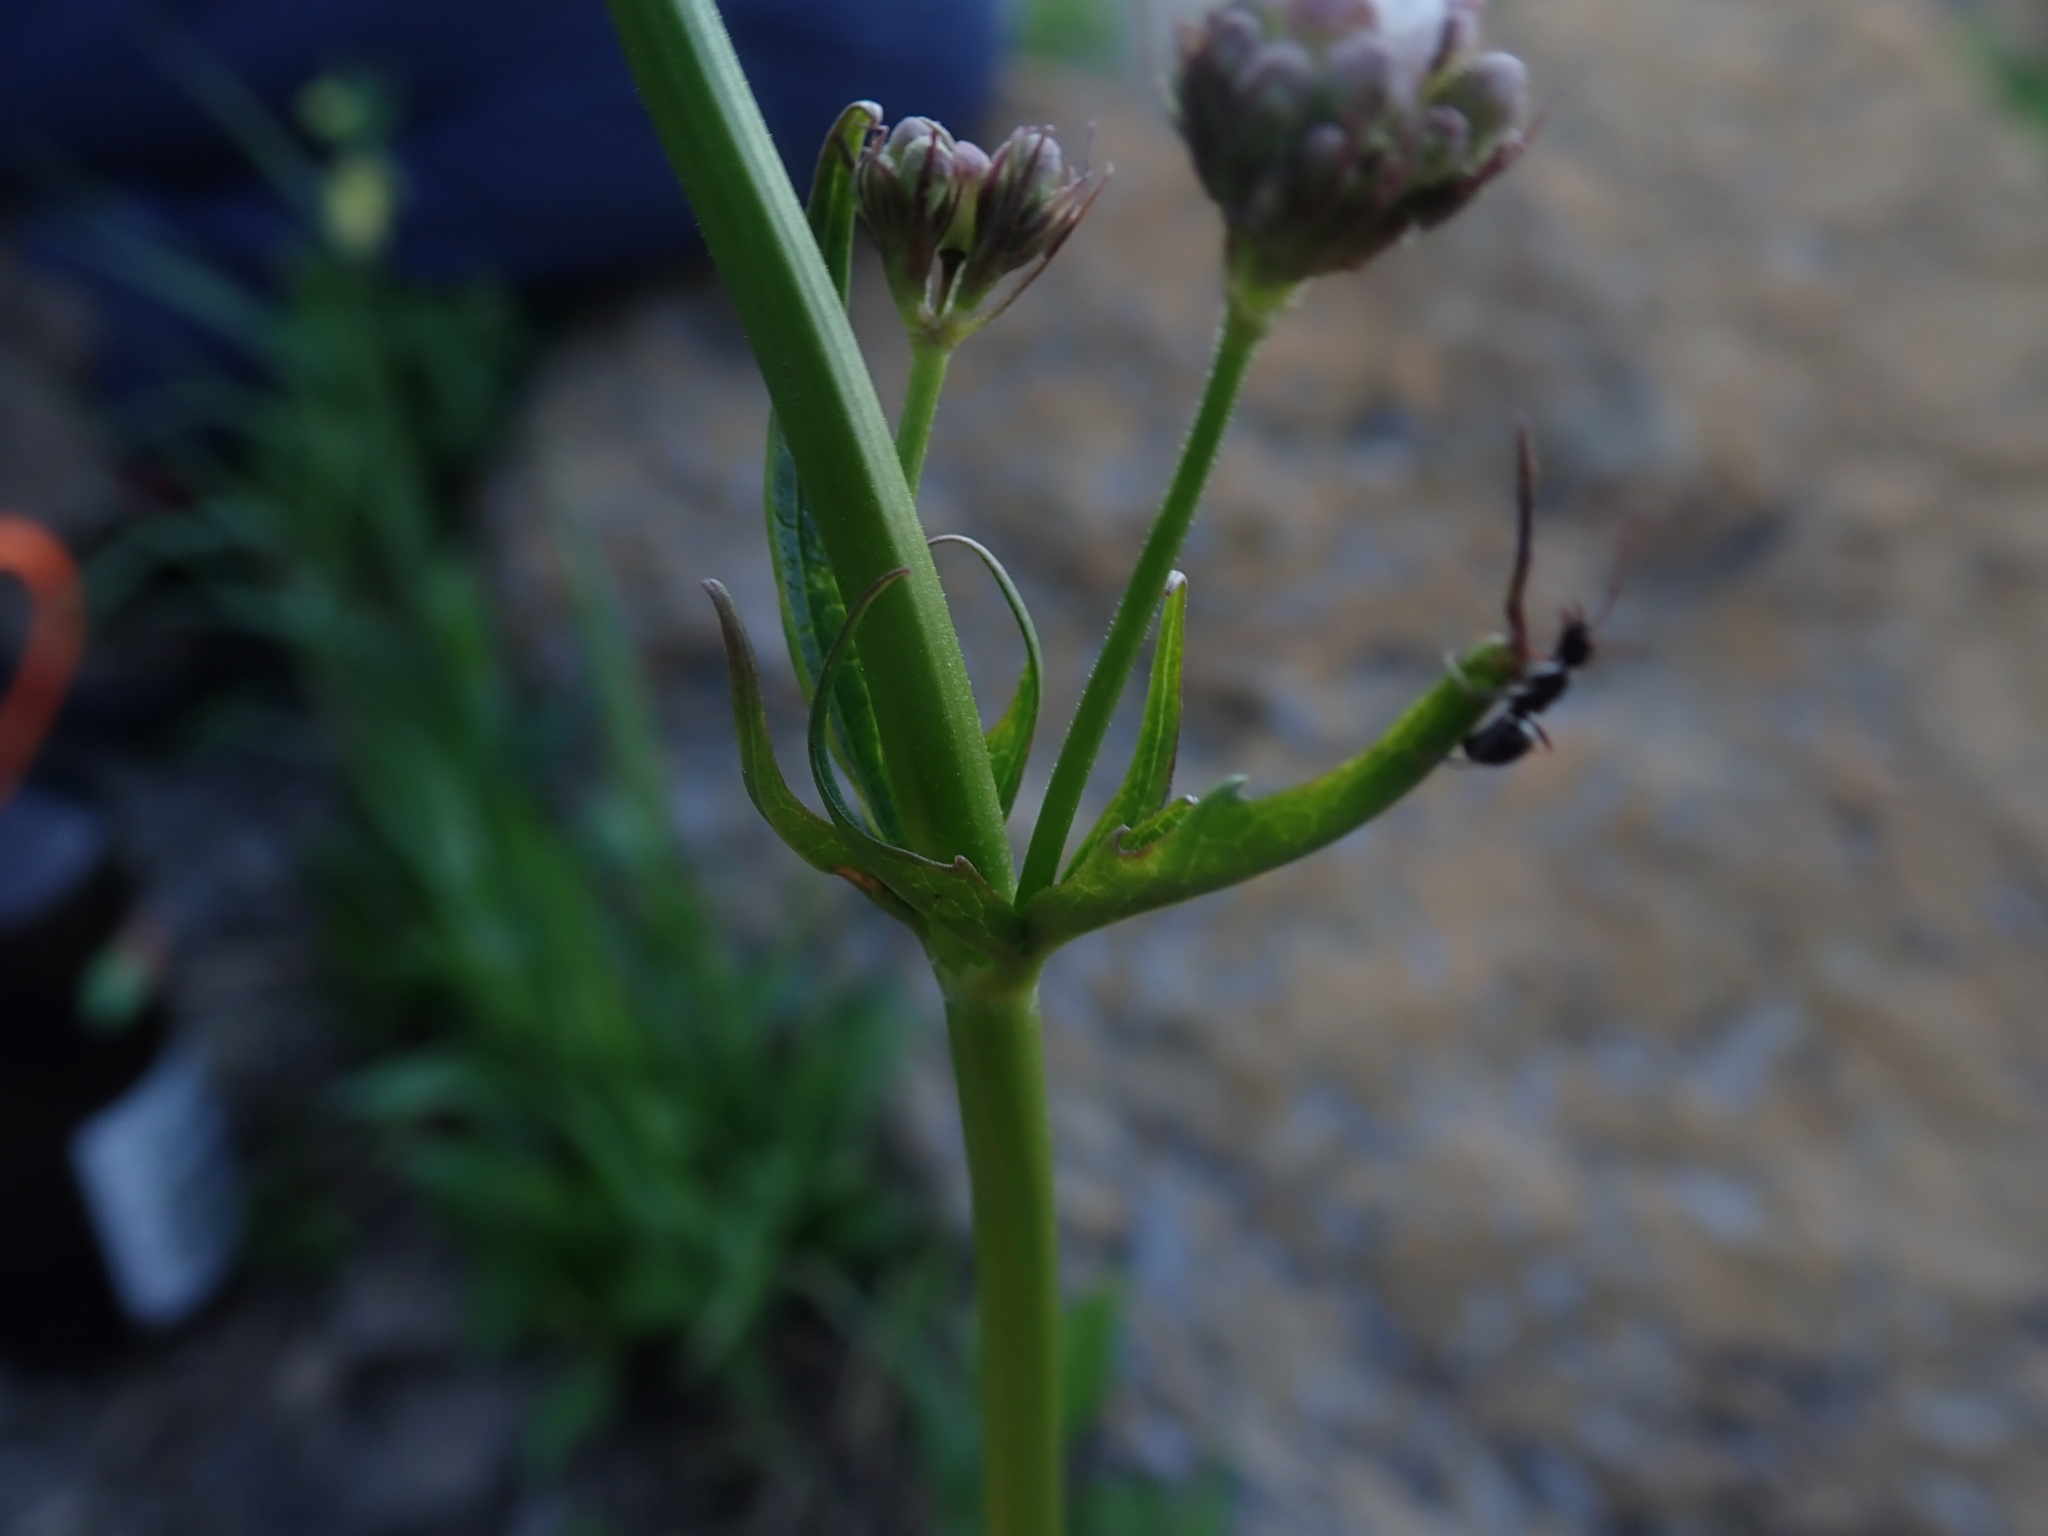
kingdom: Plantae
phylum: Tracheophyta
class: Magnoliopsida
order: Dipsacales
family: Caprifoliaceae
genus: Valeriana
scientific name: Valeriana sitchensis
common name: Pacific valerian
